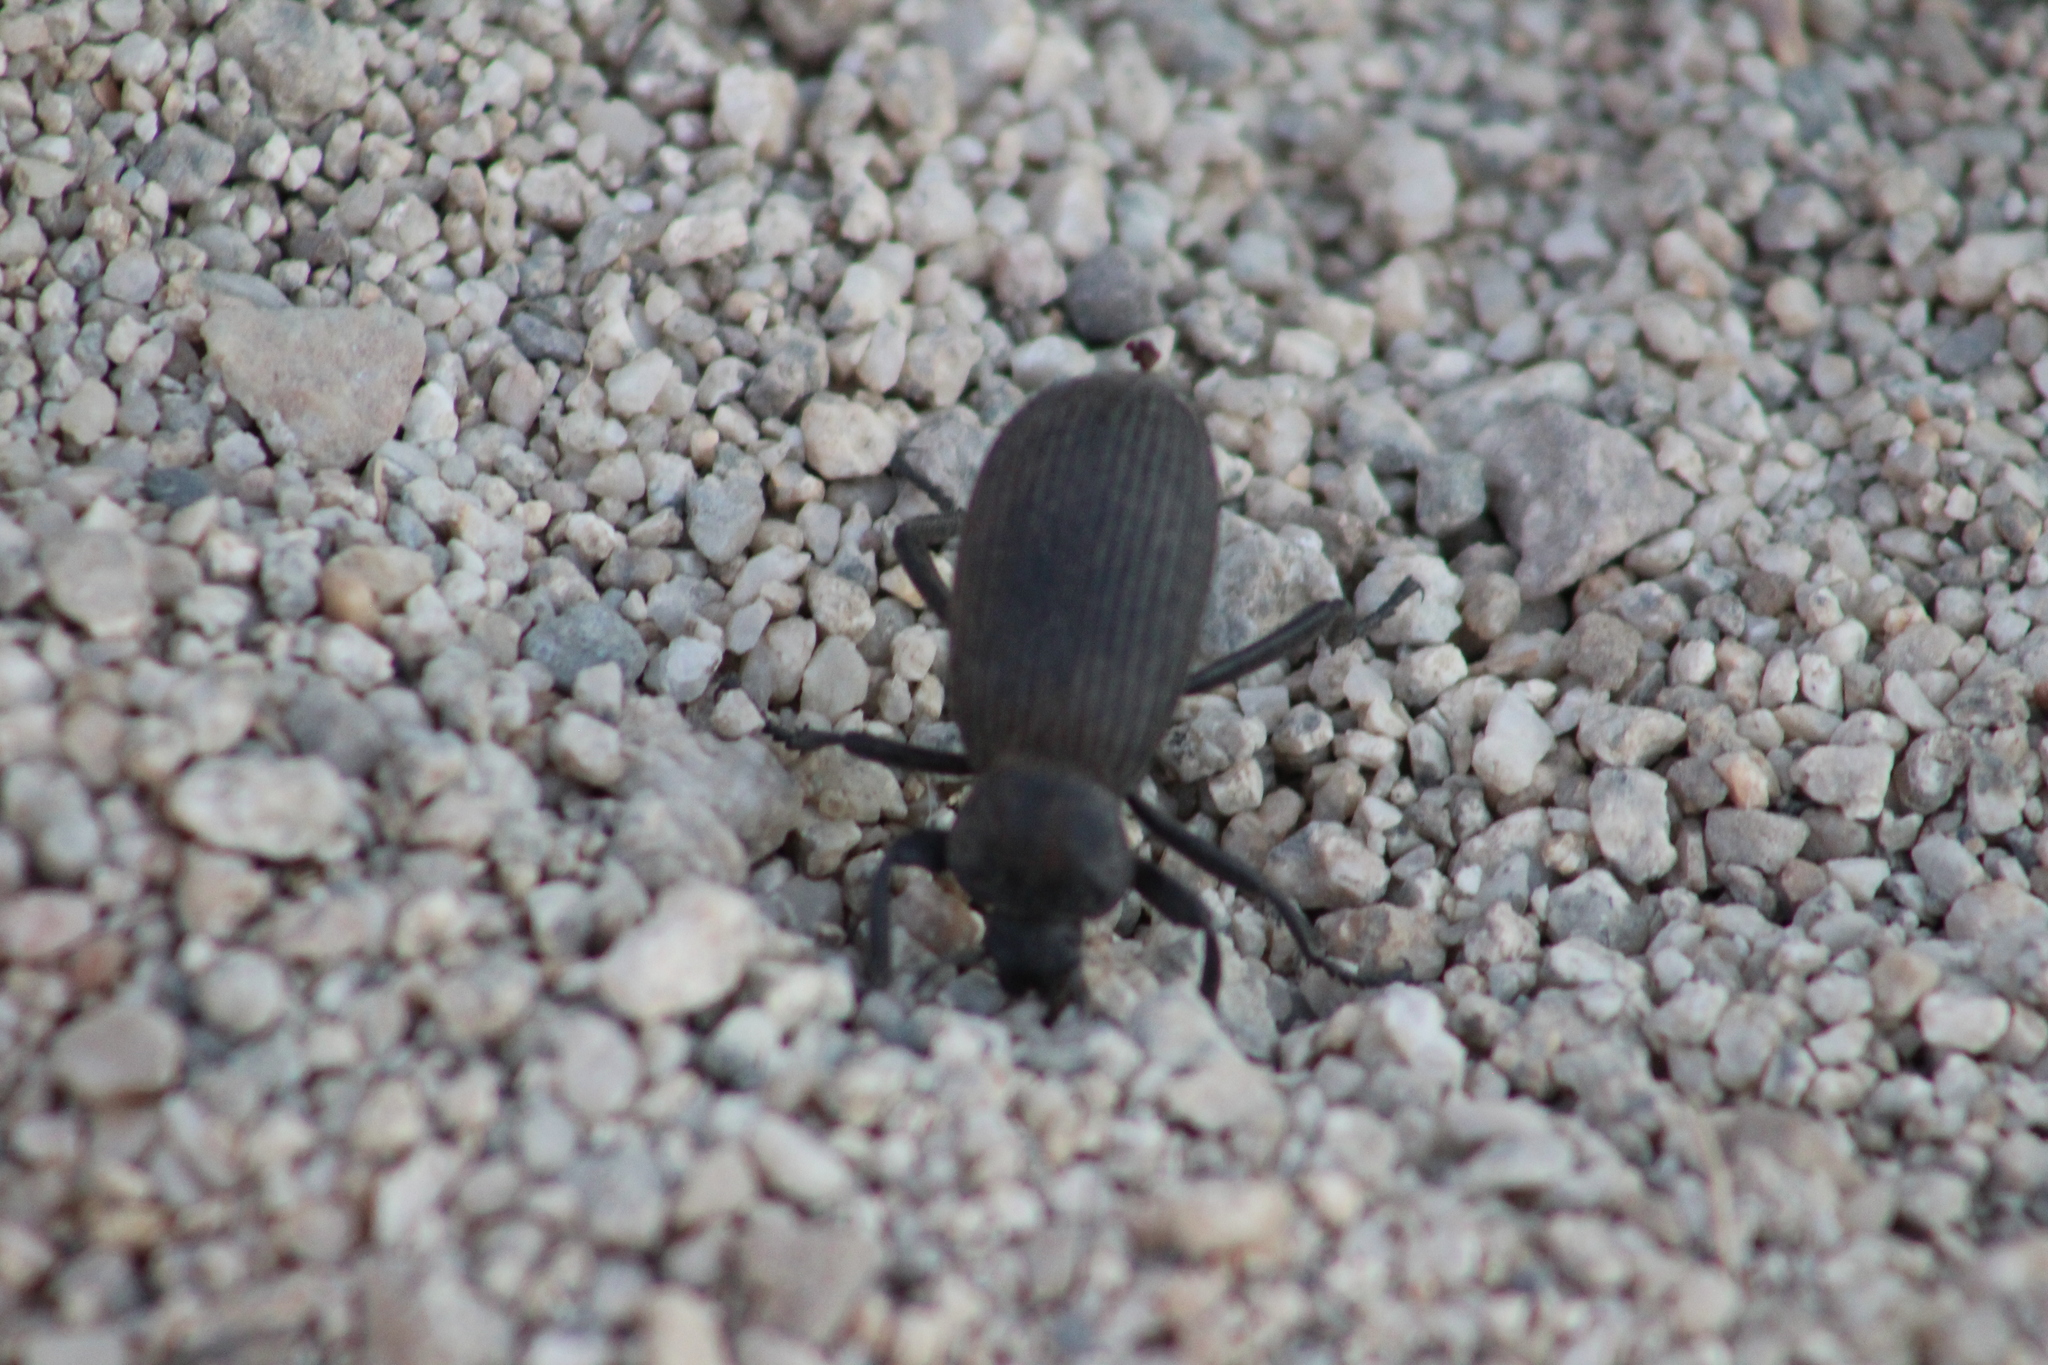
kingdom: Animalia
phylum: Arthropoda
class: Insecta
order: Coleoptera
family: Tenebrionidae
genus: Eleodes
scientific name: Eleodes obscura
